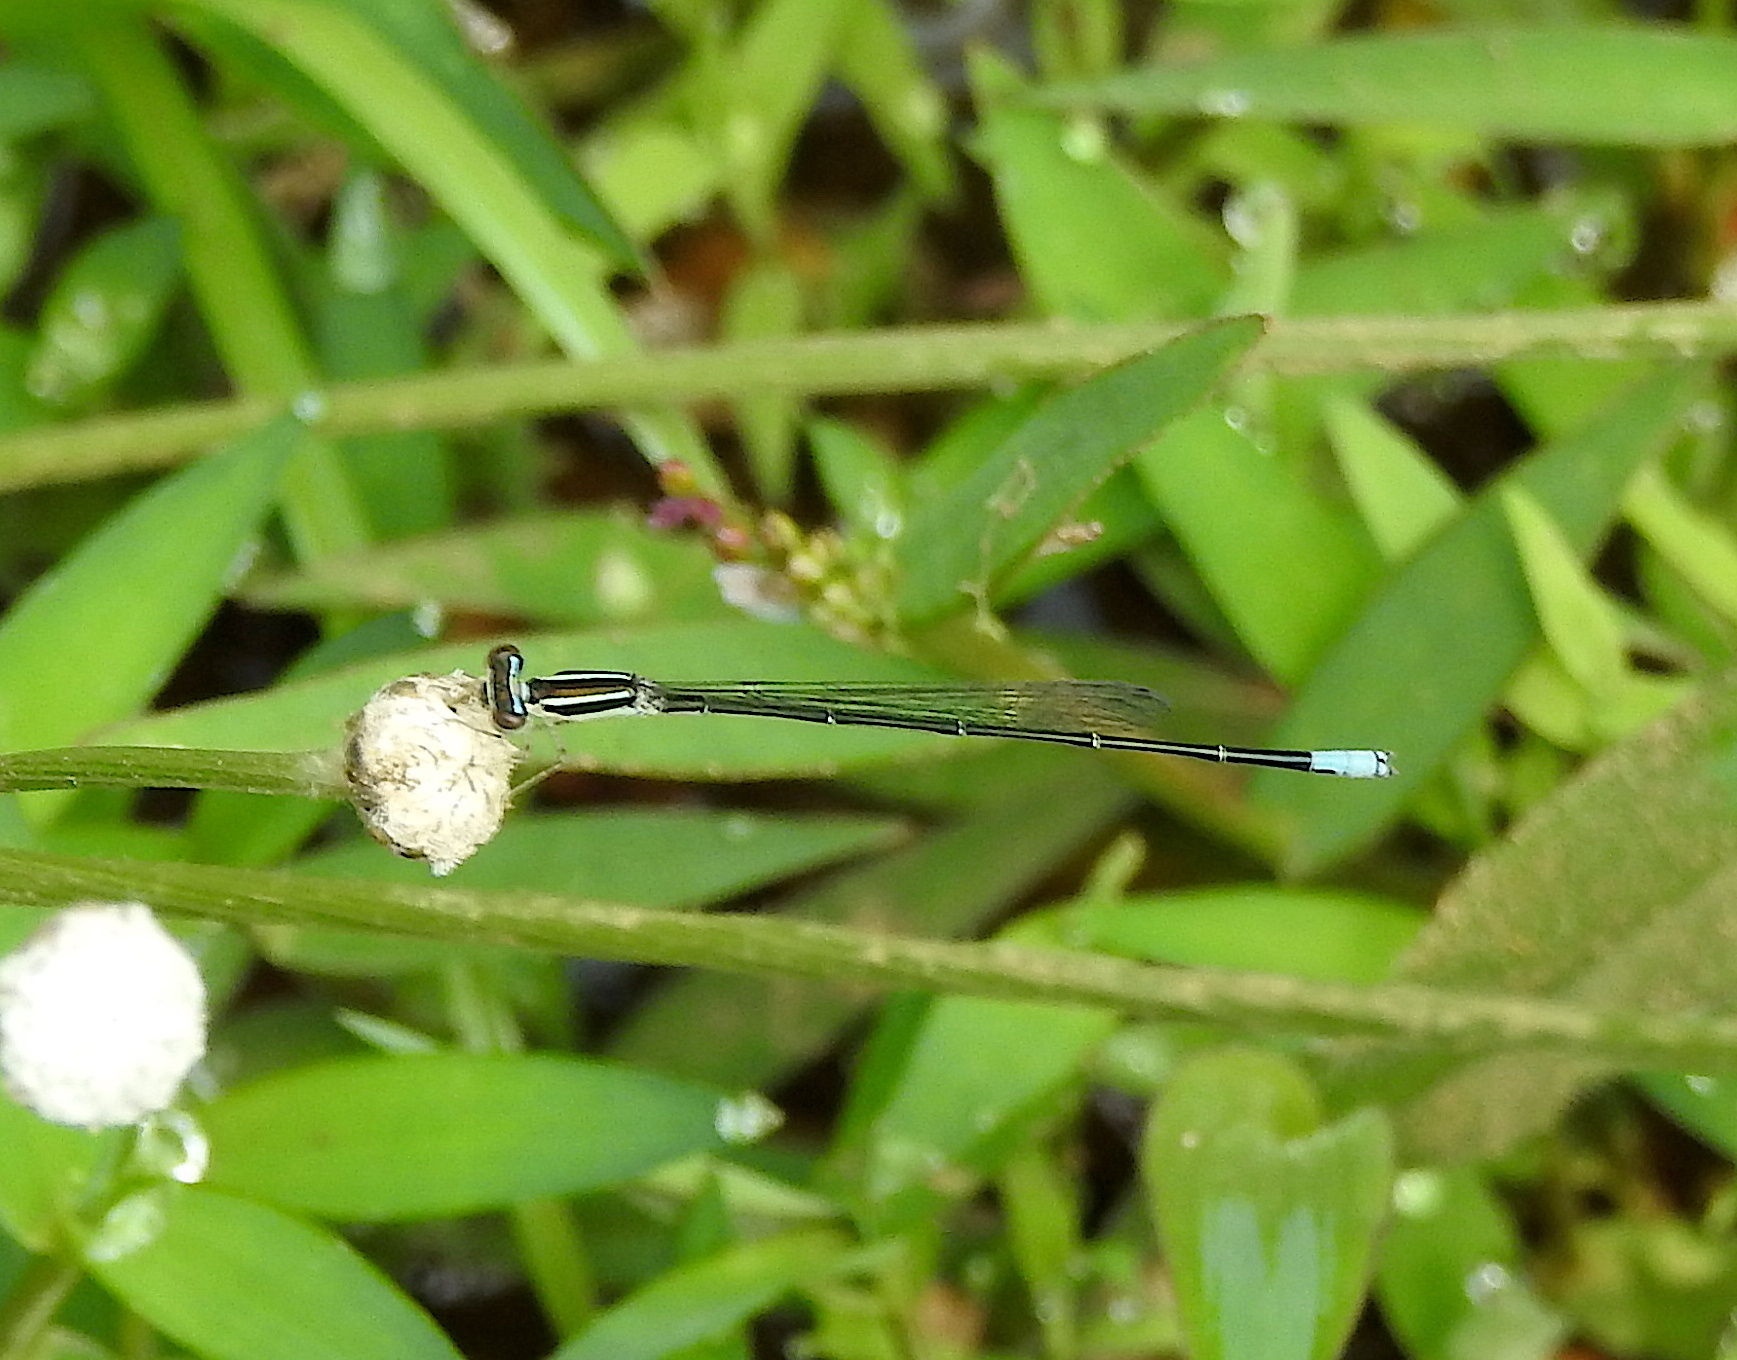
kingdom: Animalia
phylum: Arthropoda
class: Insecta
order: Odonata
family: Coenagrionidae
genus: Aciagrion
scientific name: Aciagrion occidentale
